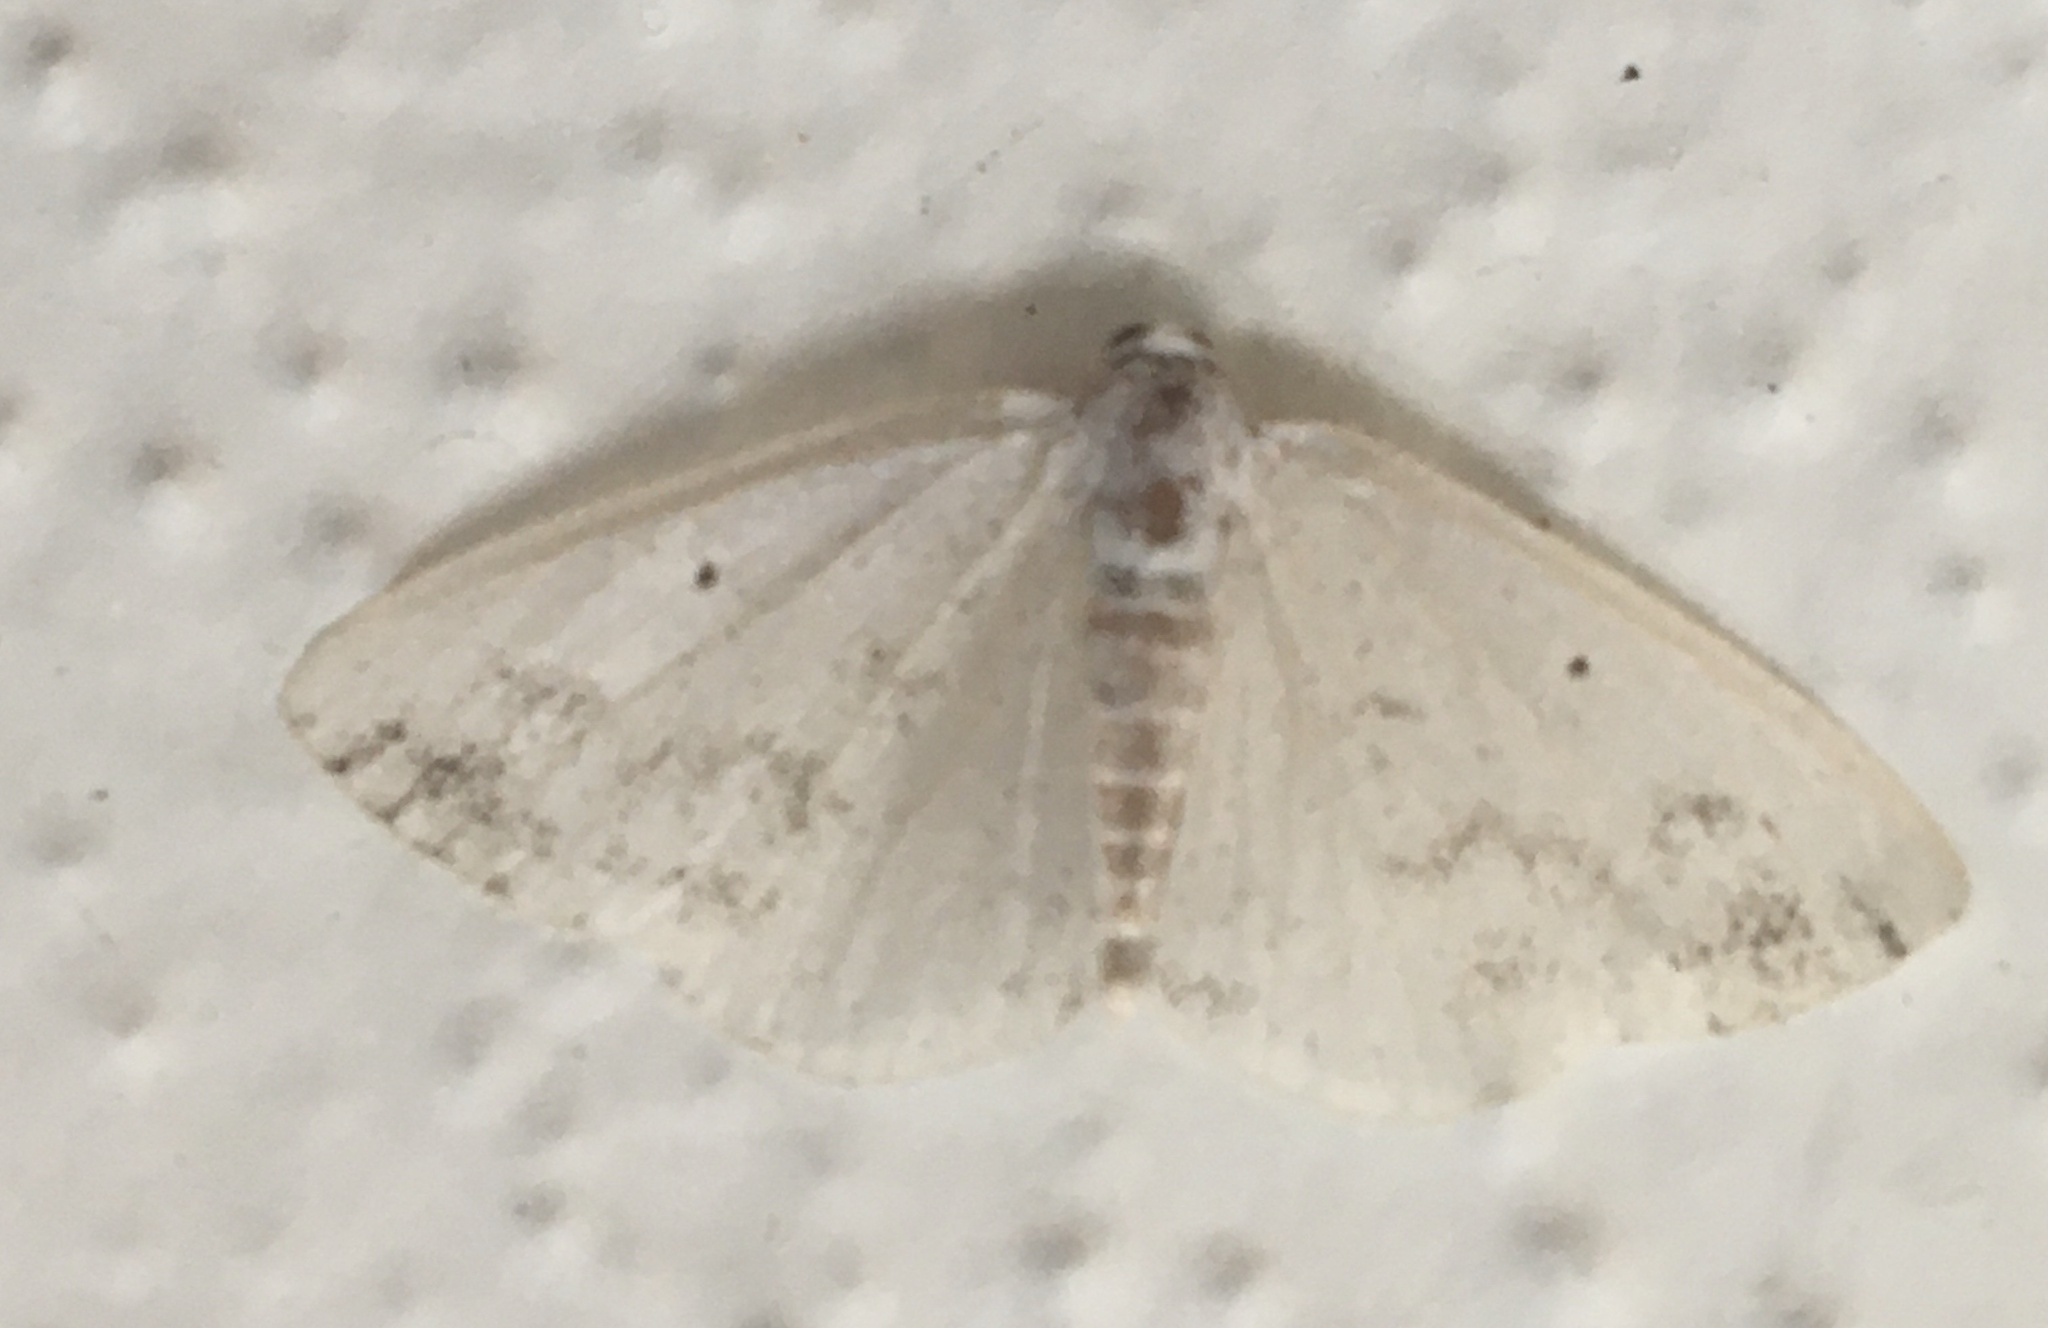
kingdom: Animalia
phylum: Arthropoda
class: Insecta
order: Lepidoptera
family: Geometridae
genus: Lomographa
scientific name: Lomographa temerata
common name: Clouded silver
